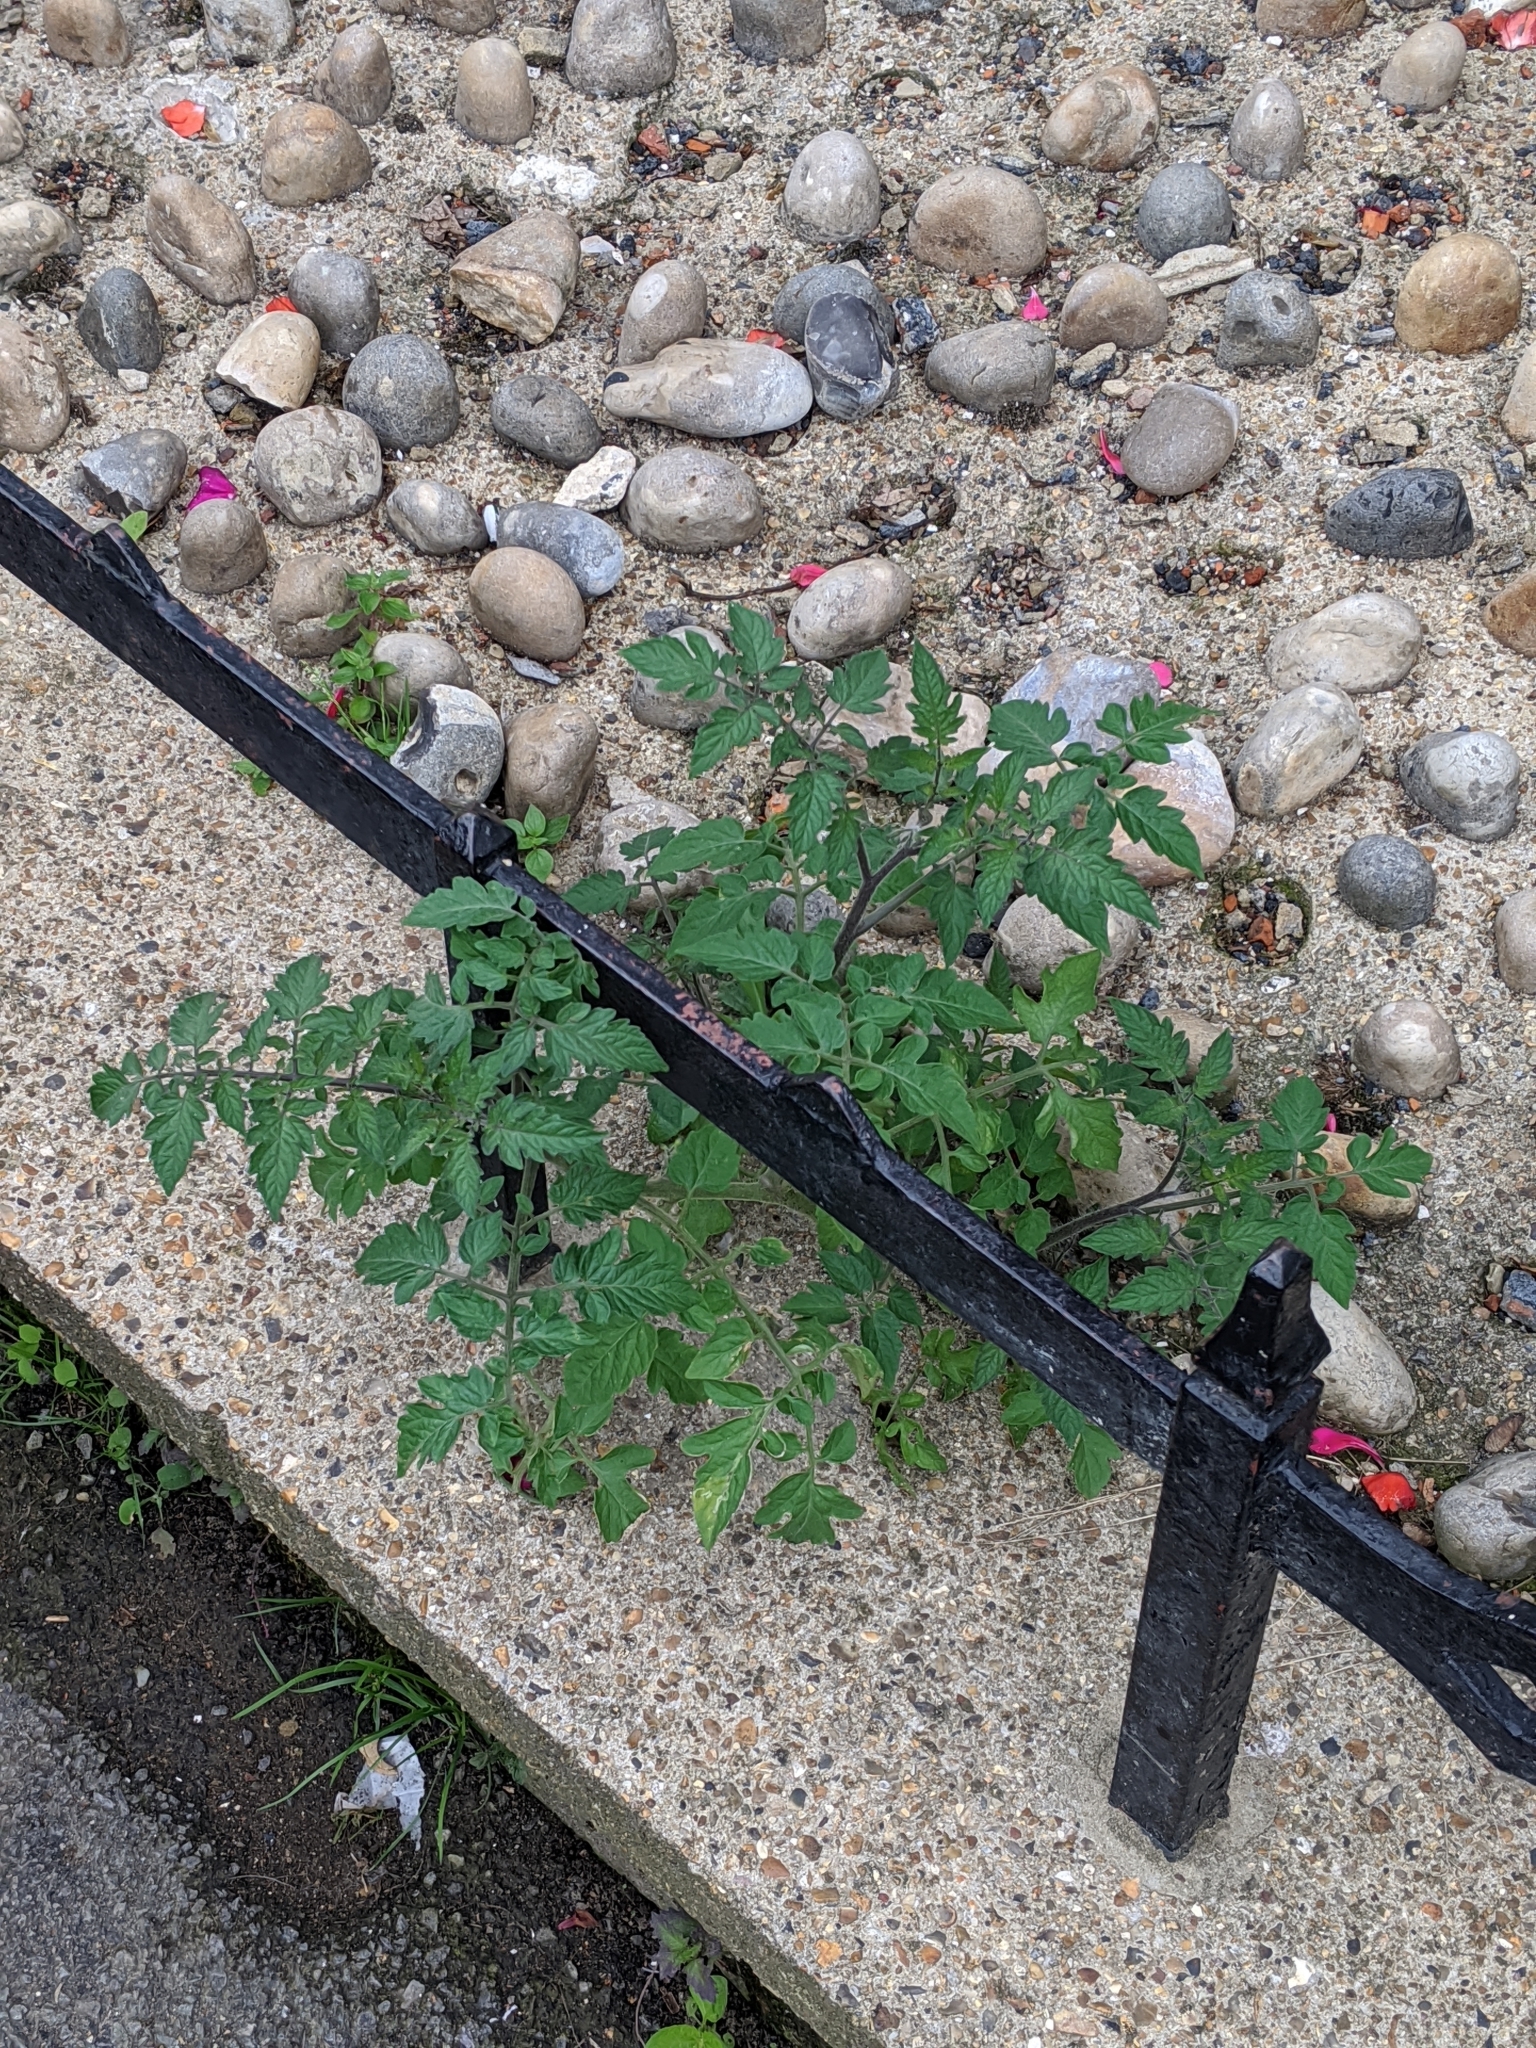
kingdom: Plantae
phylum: Tracheophyta
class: Magnoliopsida
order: Solanales
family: Solanaceae
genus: Solanum
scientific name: Solanum lycopersicum
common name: Garden tomato
